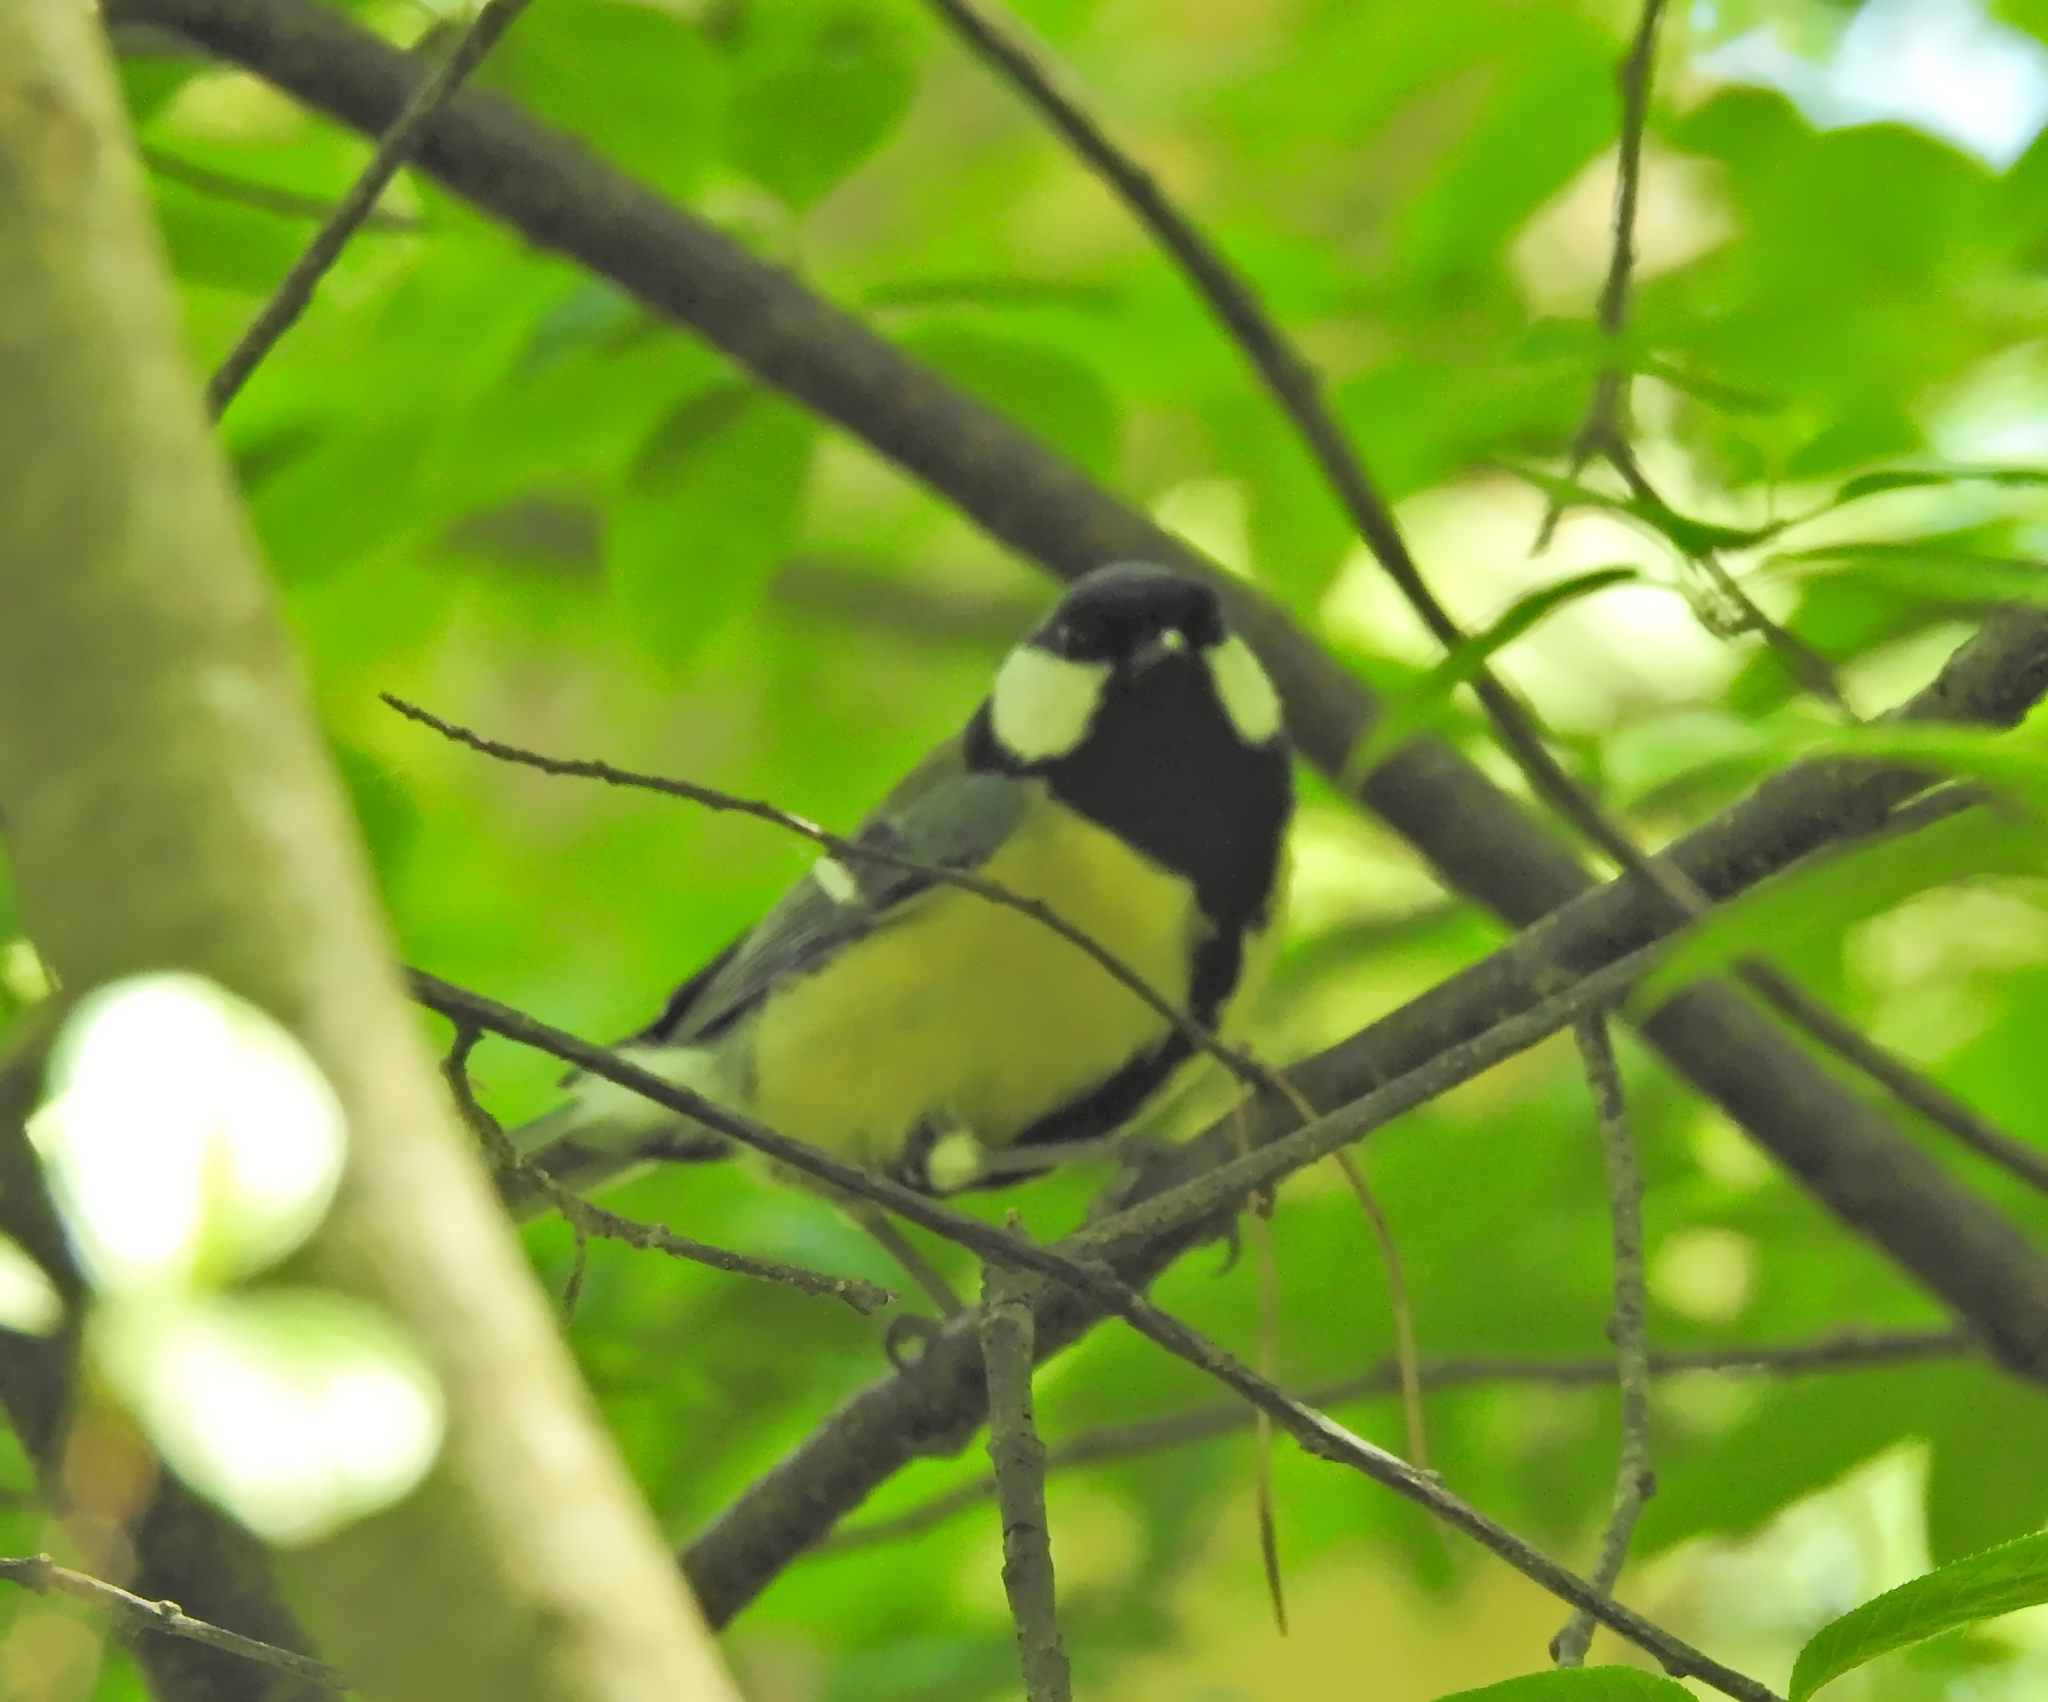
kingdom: Animalia
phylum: Chordata
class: Aves
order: Passeriformes
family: Paridae
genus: Parus
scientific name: Parus major
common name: Great tit
